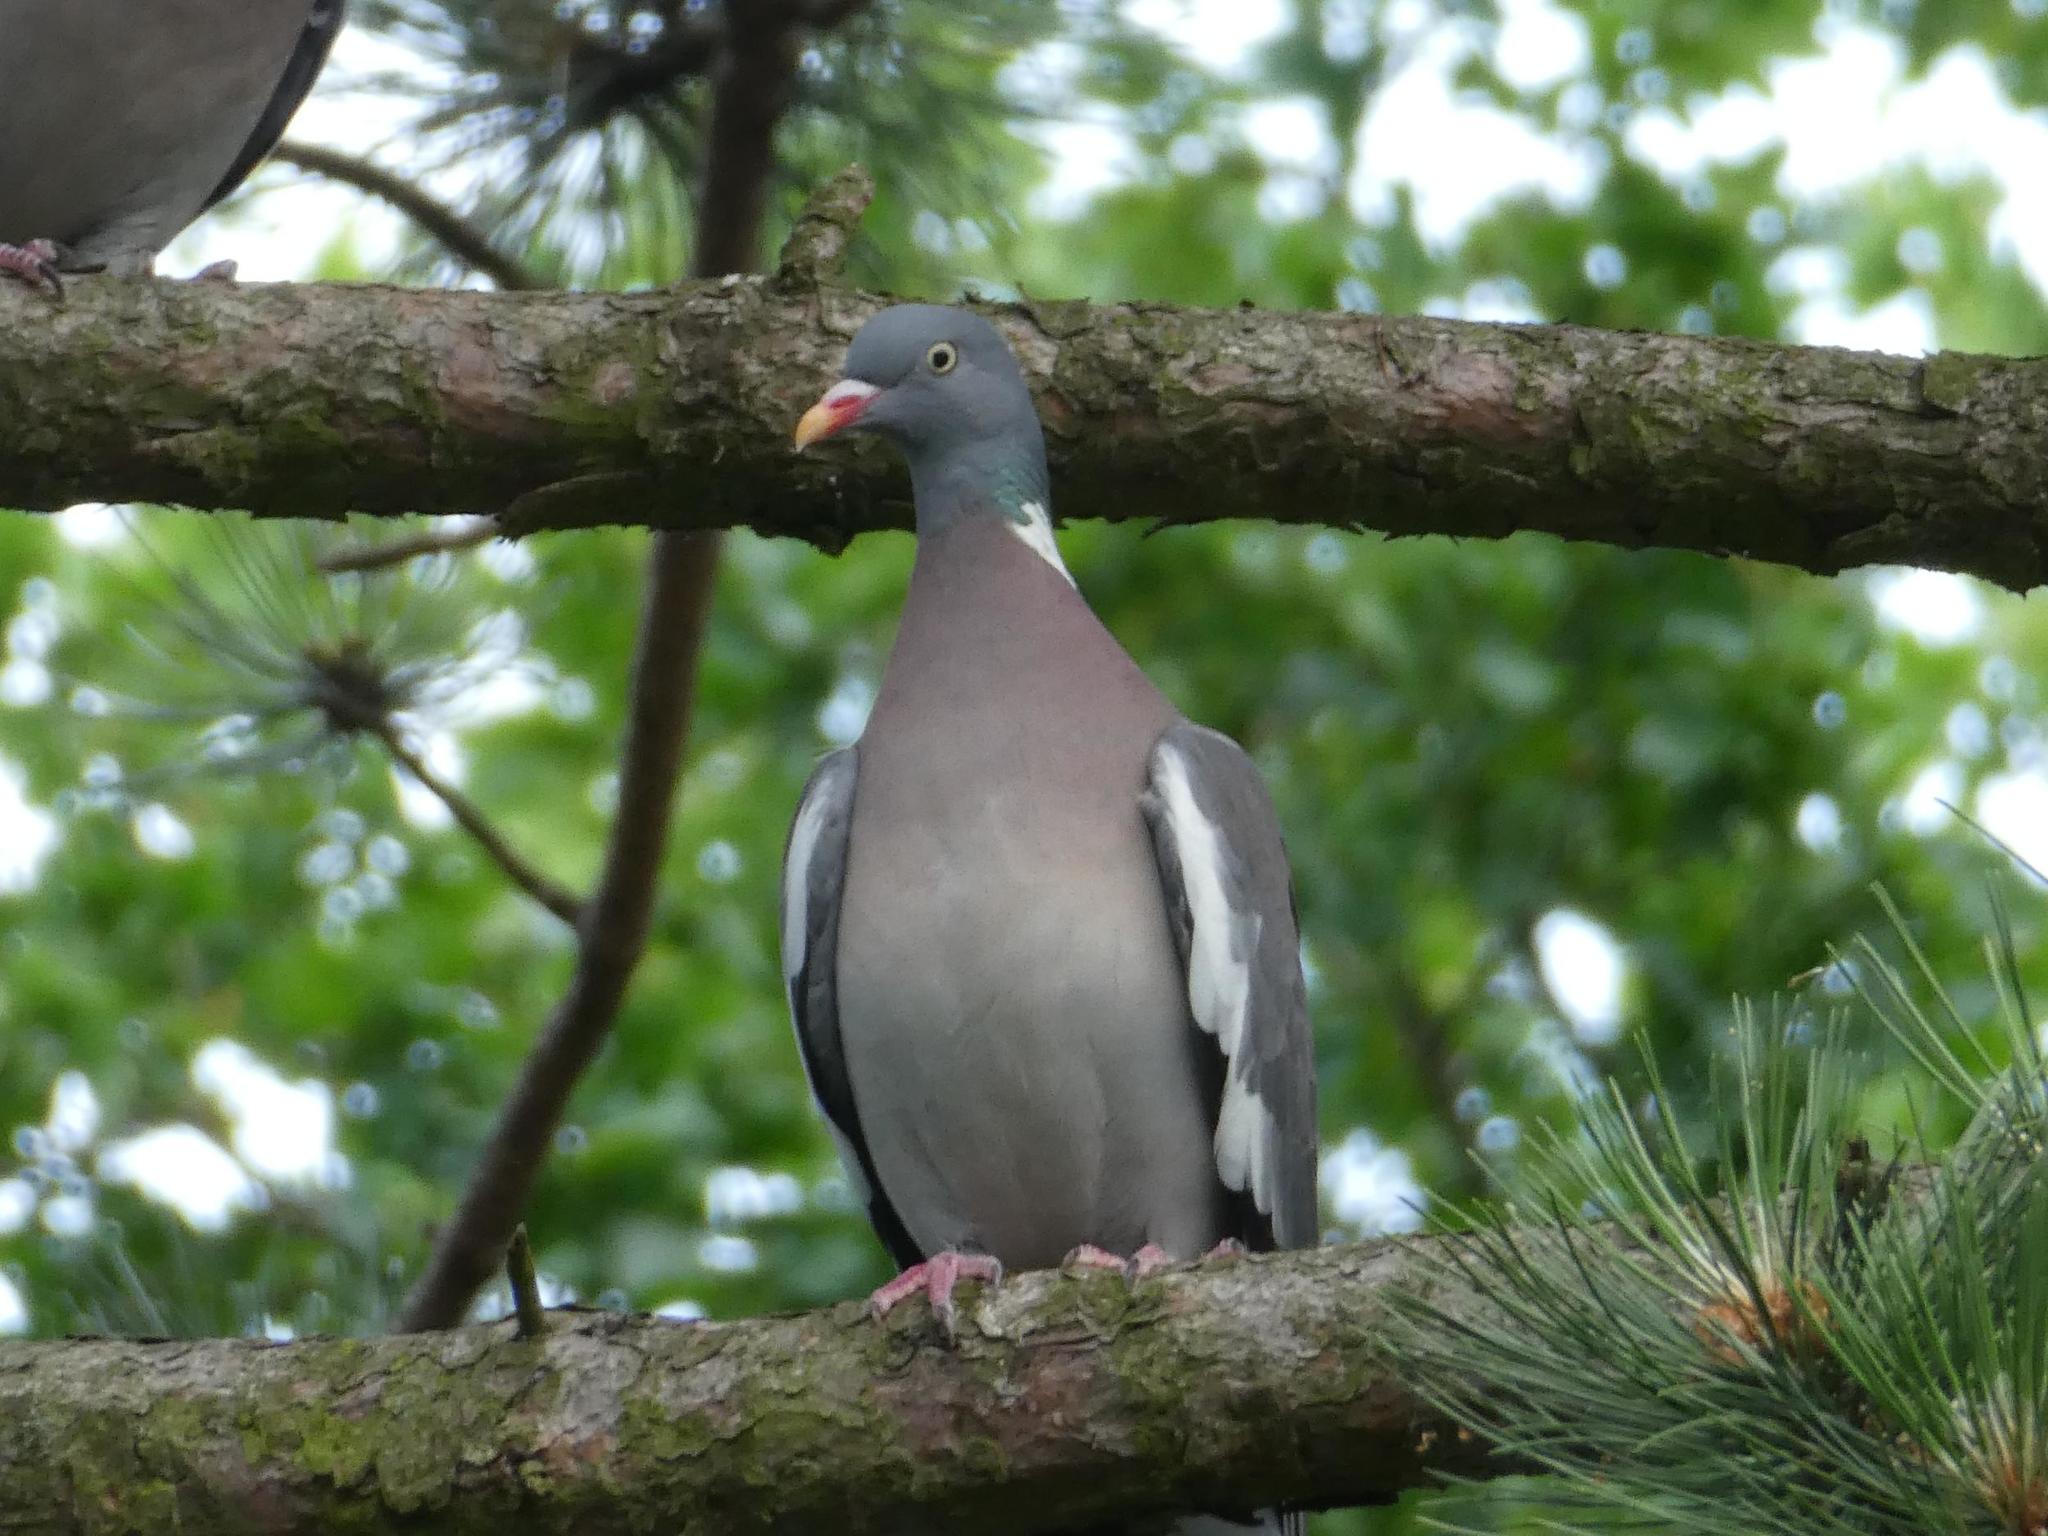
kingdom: Animalia
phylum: Chordata
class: Aves
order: Columbiformes
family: Columbidae
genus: Columba
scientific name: Columba palumbus
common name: Common wood pigeon
